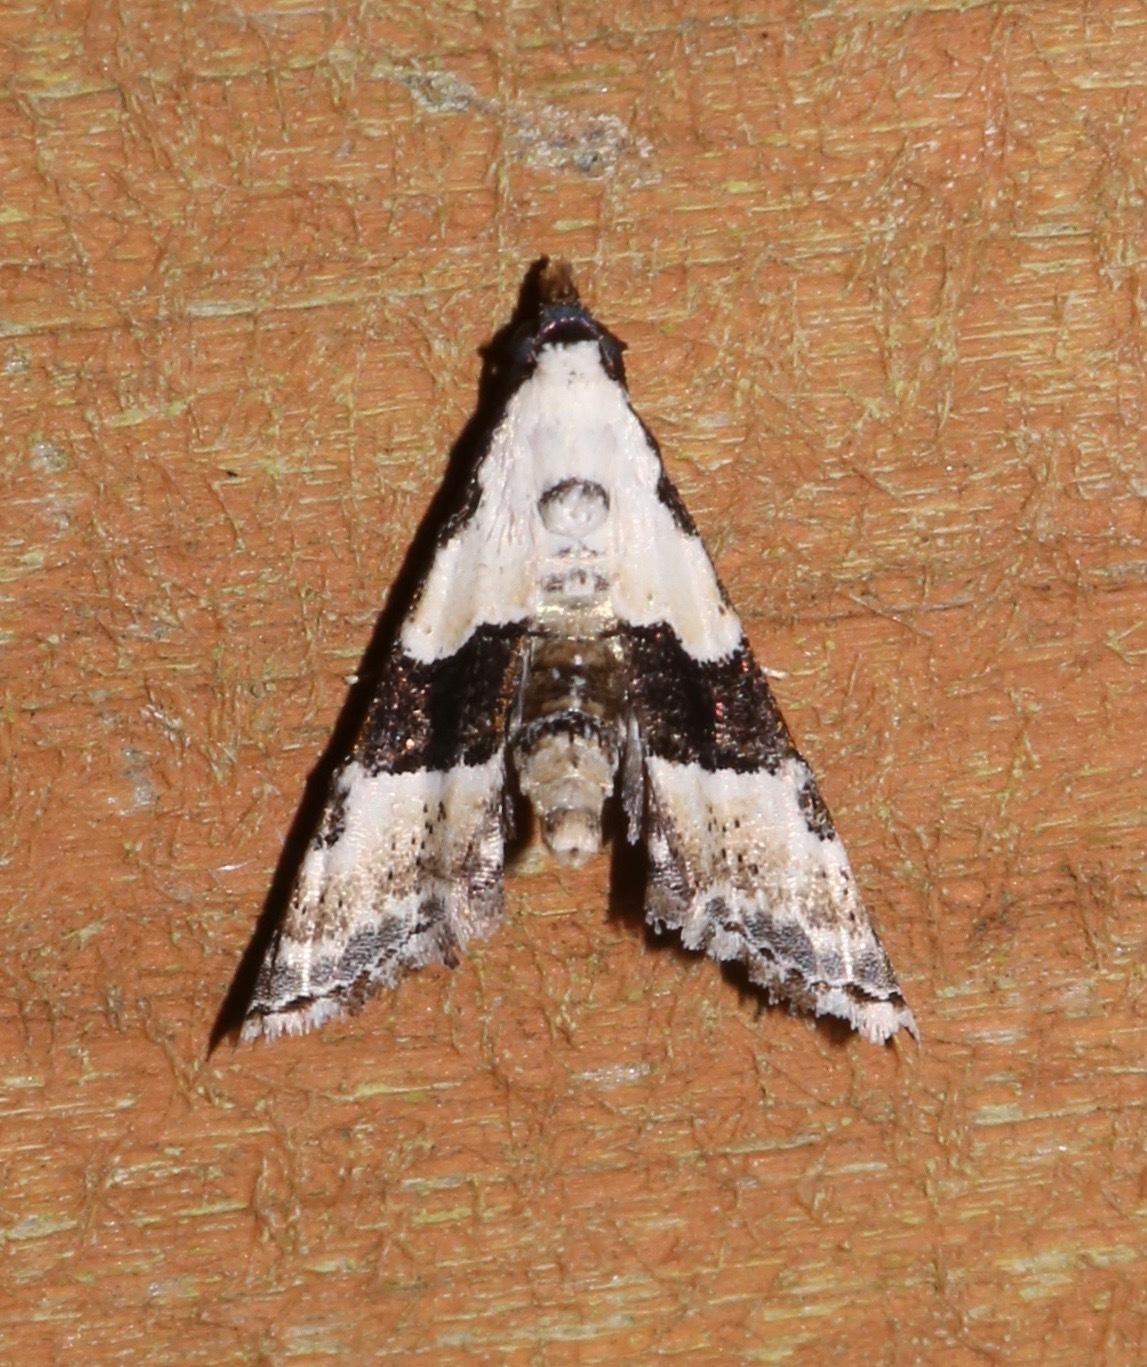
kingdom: Animalia
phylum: Arthropoda
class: Insecta
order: Lepidoptera
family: Noctuidae
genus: Nigetia
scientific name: Nigetia formosalis
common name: Thin-winged owlet
